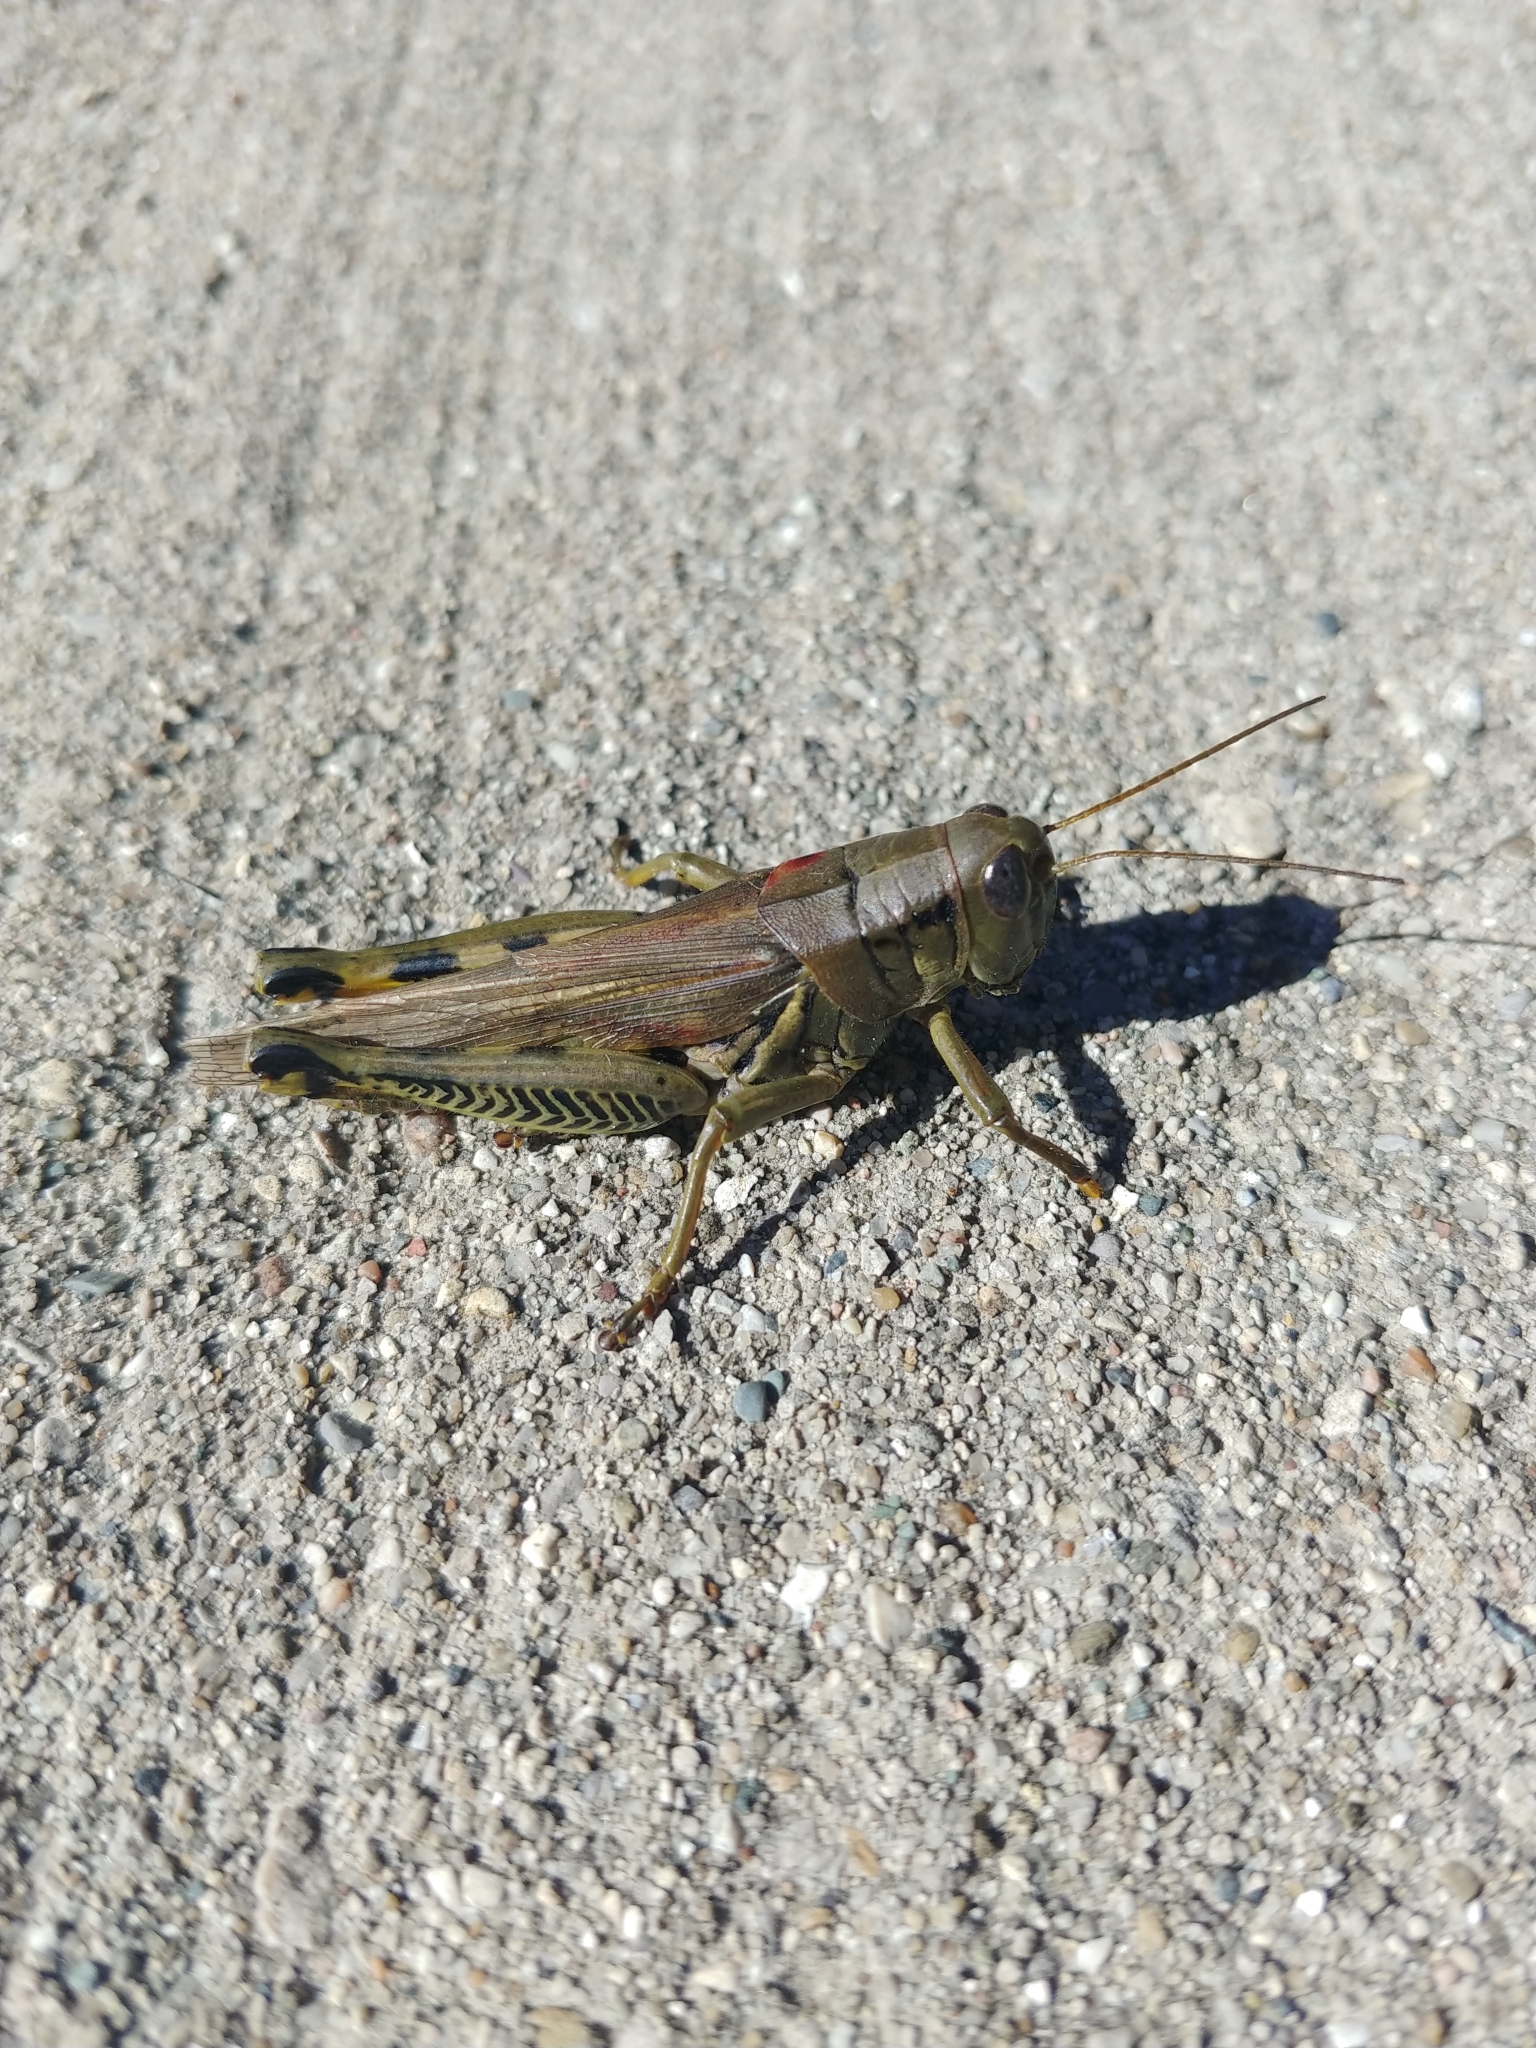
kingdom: Animalia
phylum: Arthropoda
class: Insecta
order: Orthoptera
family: Acrididae
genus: Melanoplus
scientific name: Melanoplus differentialis
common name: Differential grasshopper
